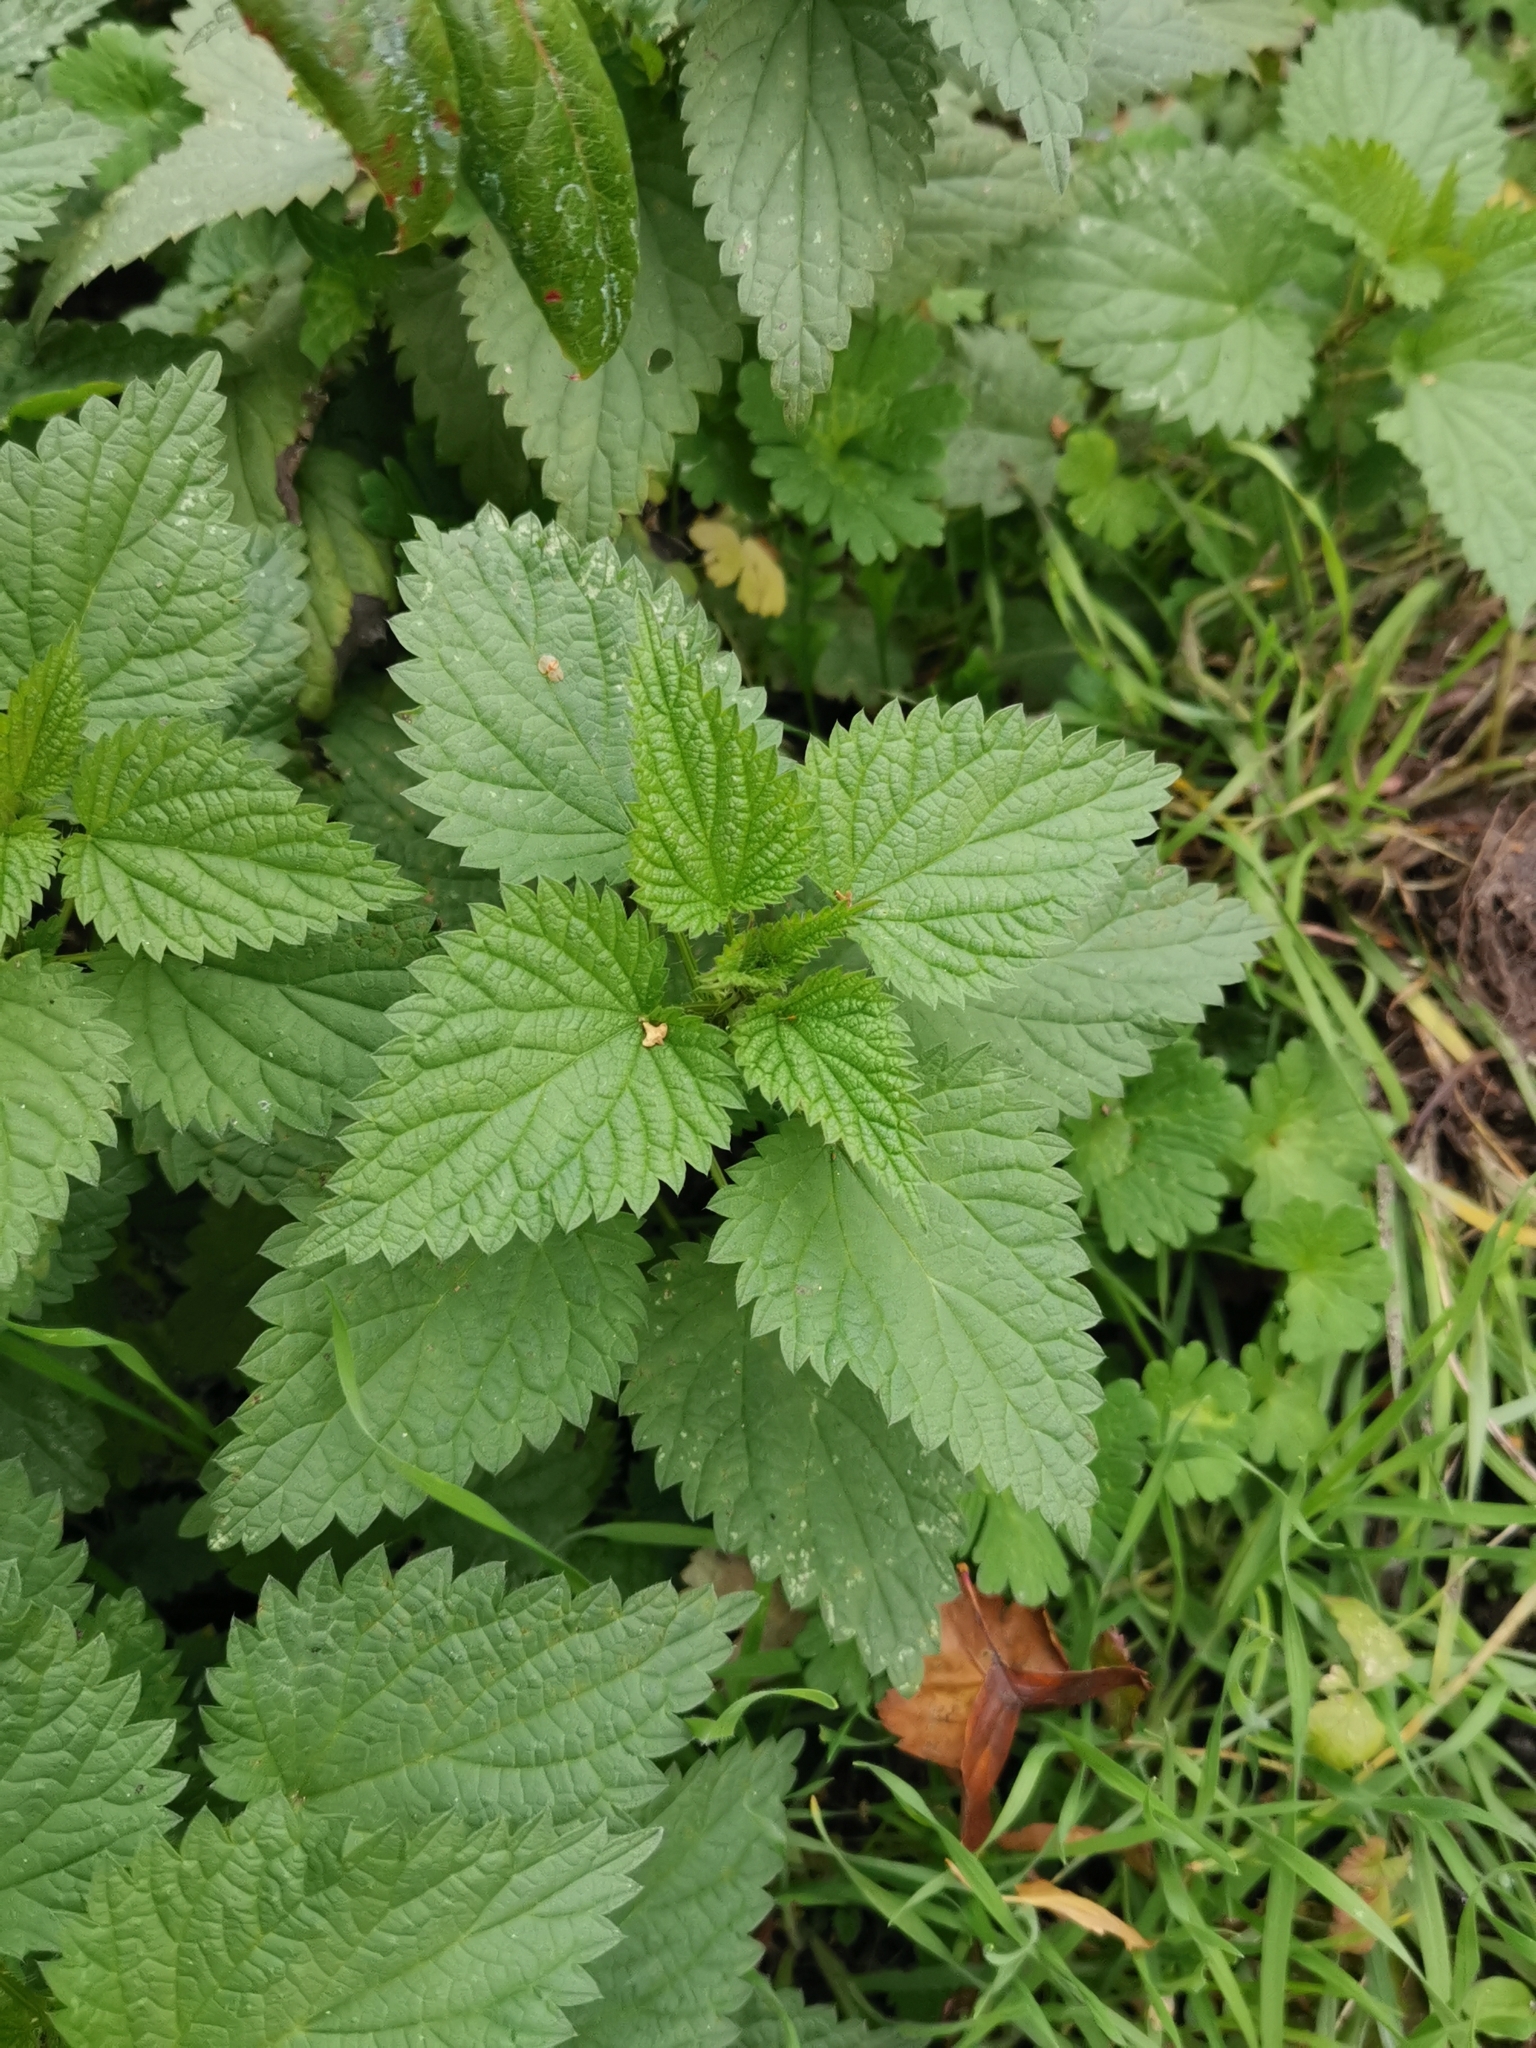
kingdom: Plantae
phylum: Tracheophyta
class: Magnoliopsida
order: Rosales
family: Urticaceae
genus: Urtica
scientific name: Urtica dioica
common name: Common nettle
